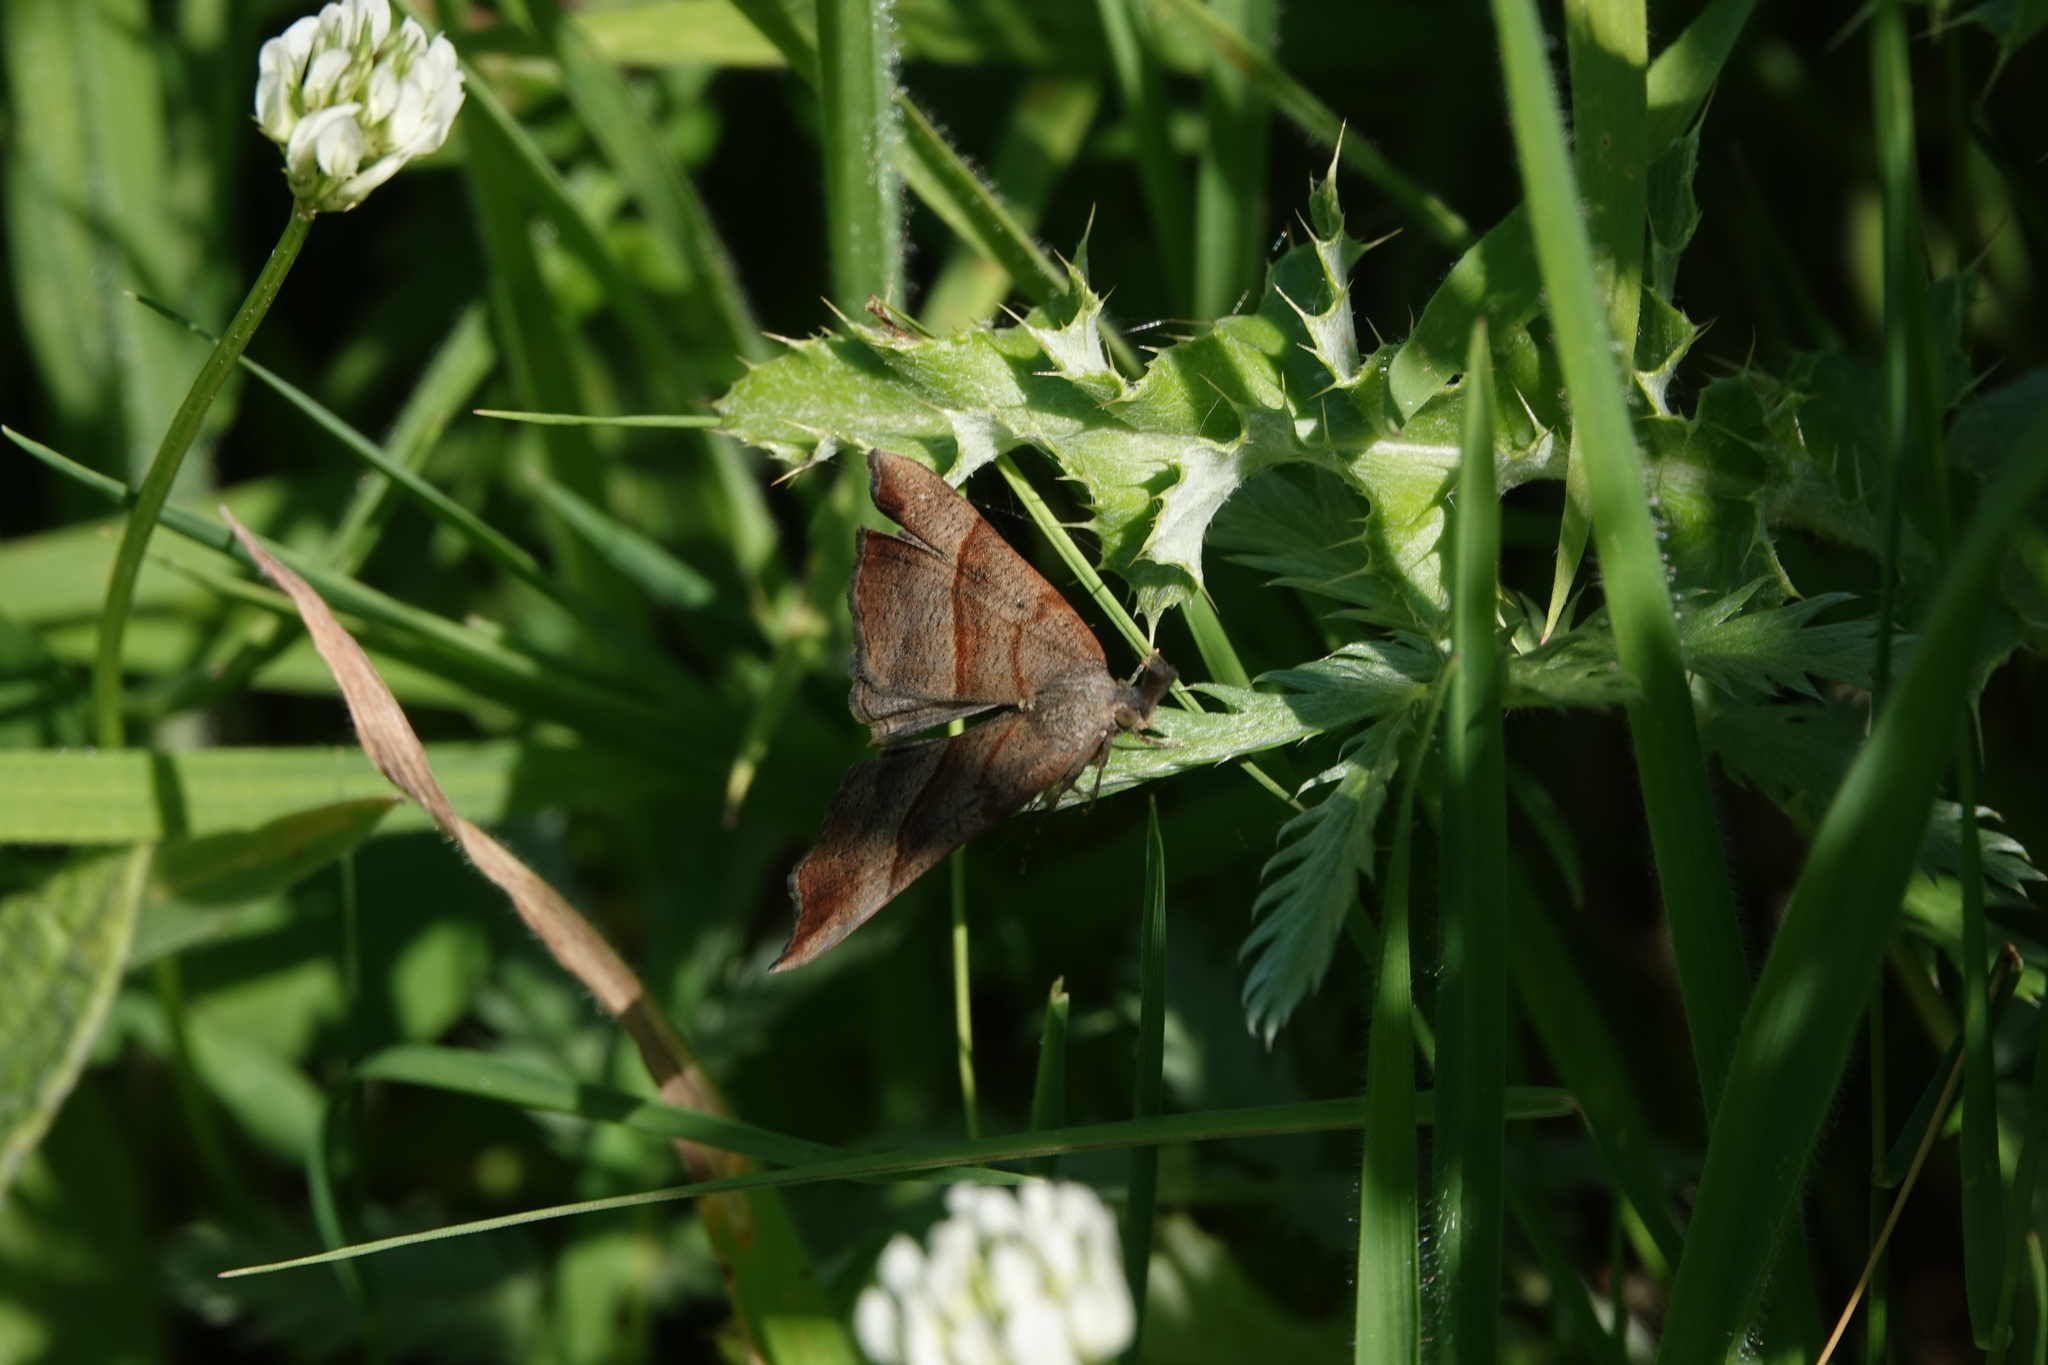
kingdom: Animalia
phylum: Arthropoda
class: Insecta
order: Lepidoptera
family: Erebidae
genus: Hypena
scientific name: Hypena proboscidalis
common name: Snout
